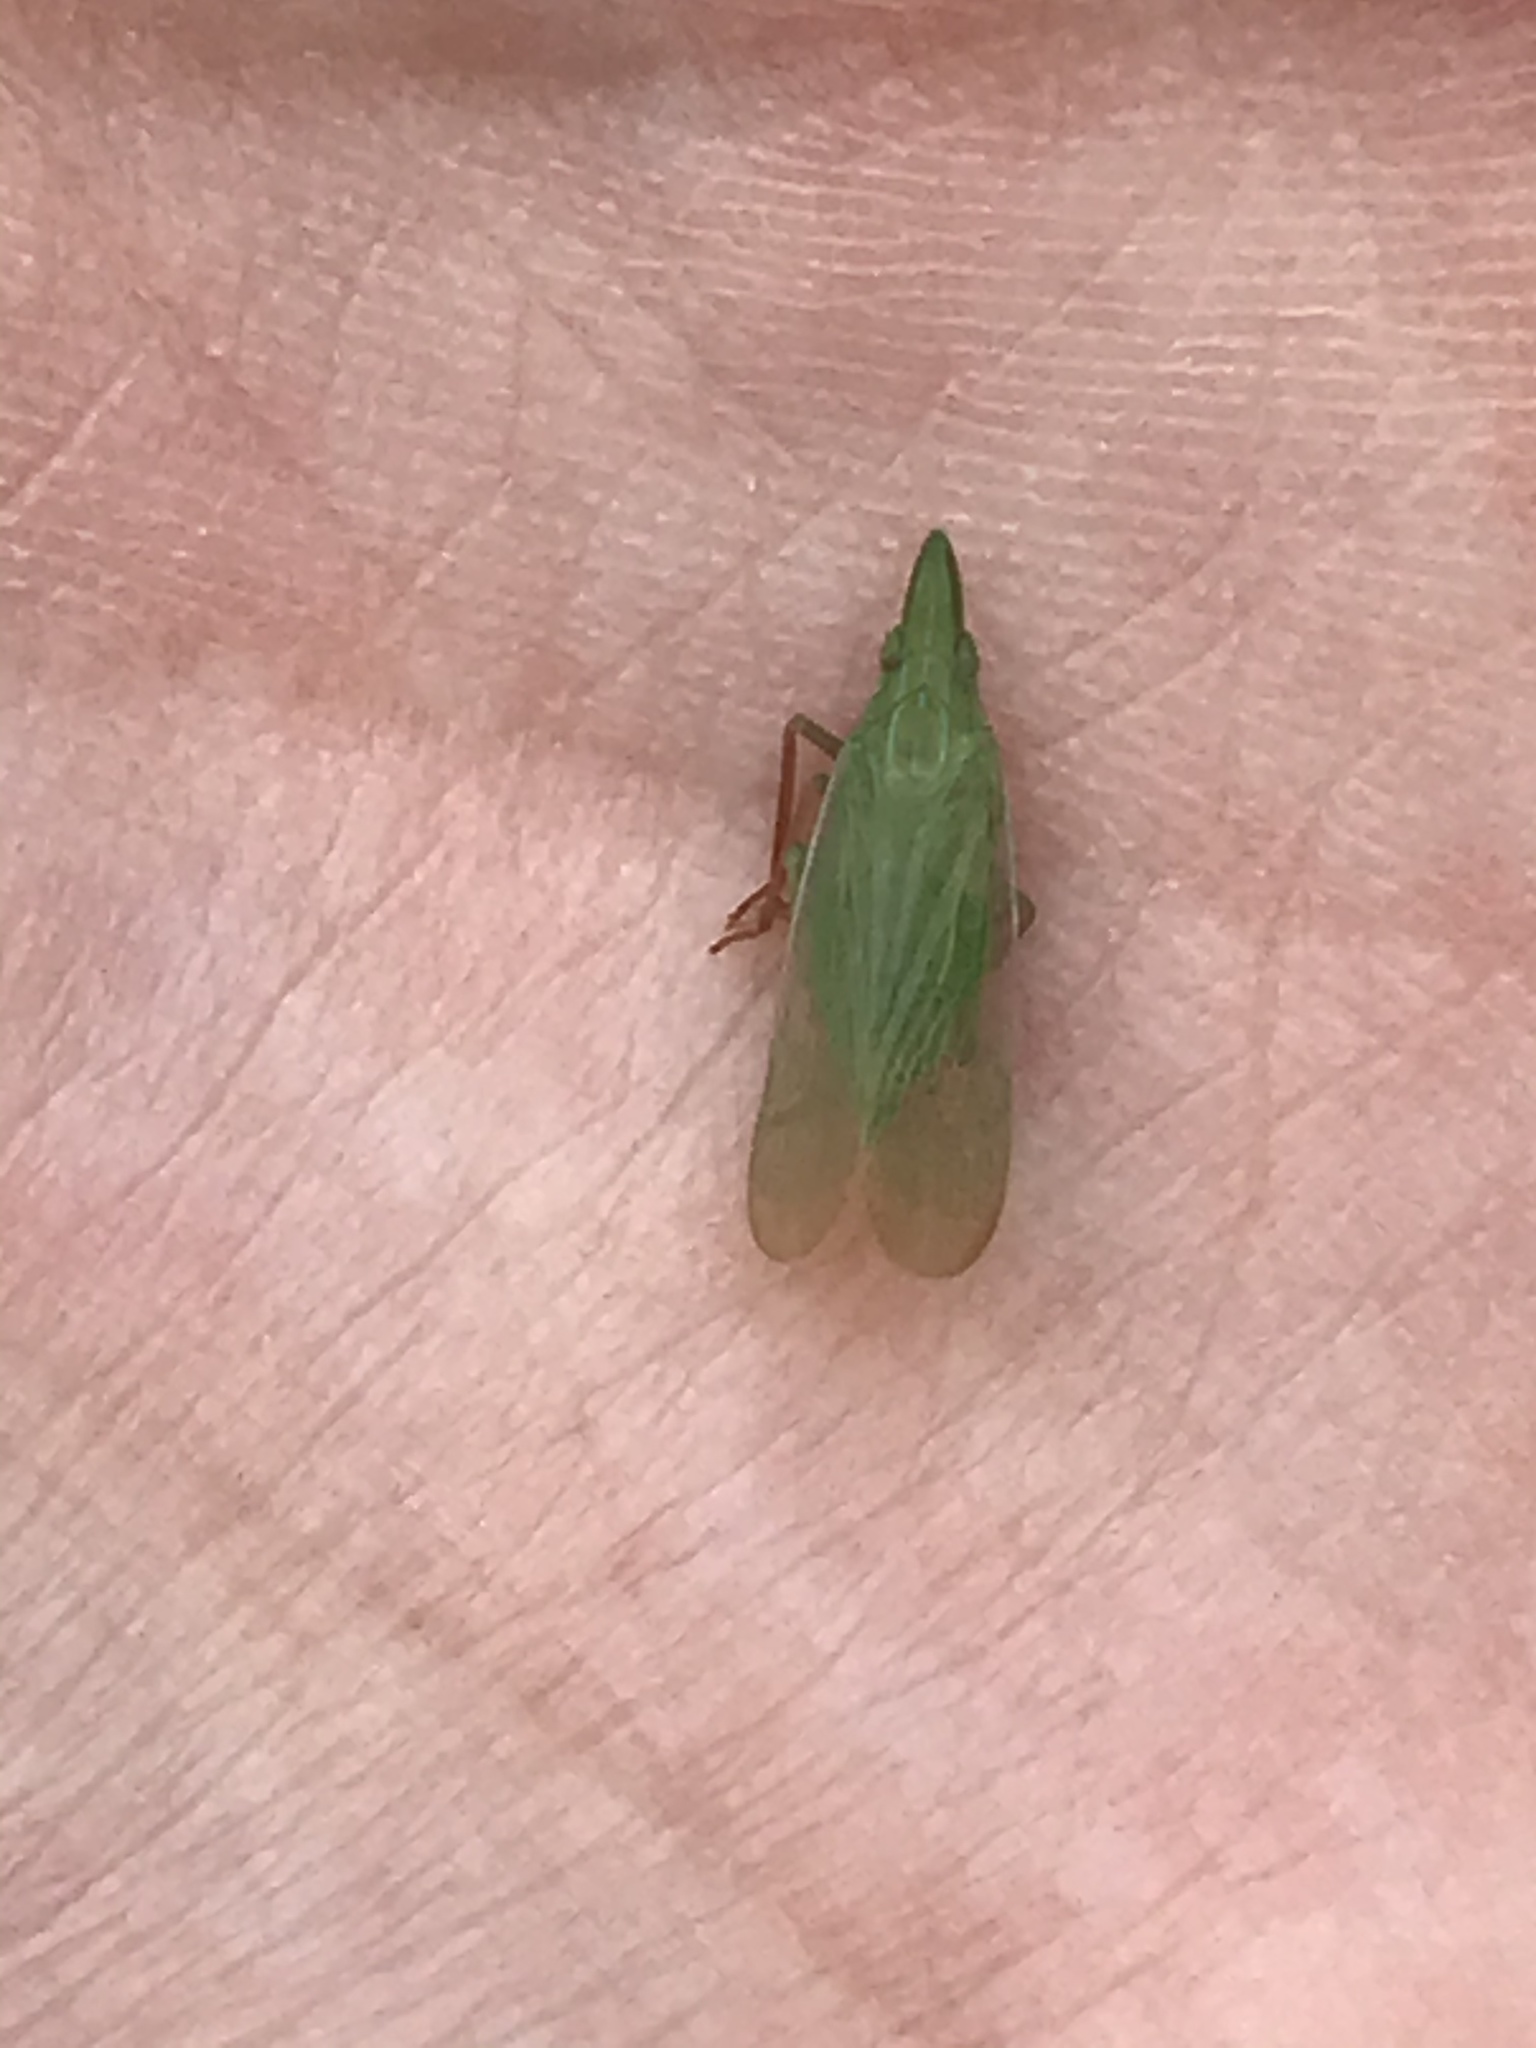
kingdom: Animalia
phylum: Arthropoda
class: Insecta
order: Hemiptera
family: Dictyopharidae
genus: Rhynchomitra
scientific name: Rhynchomitra recurva
